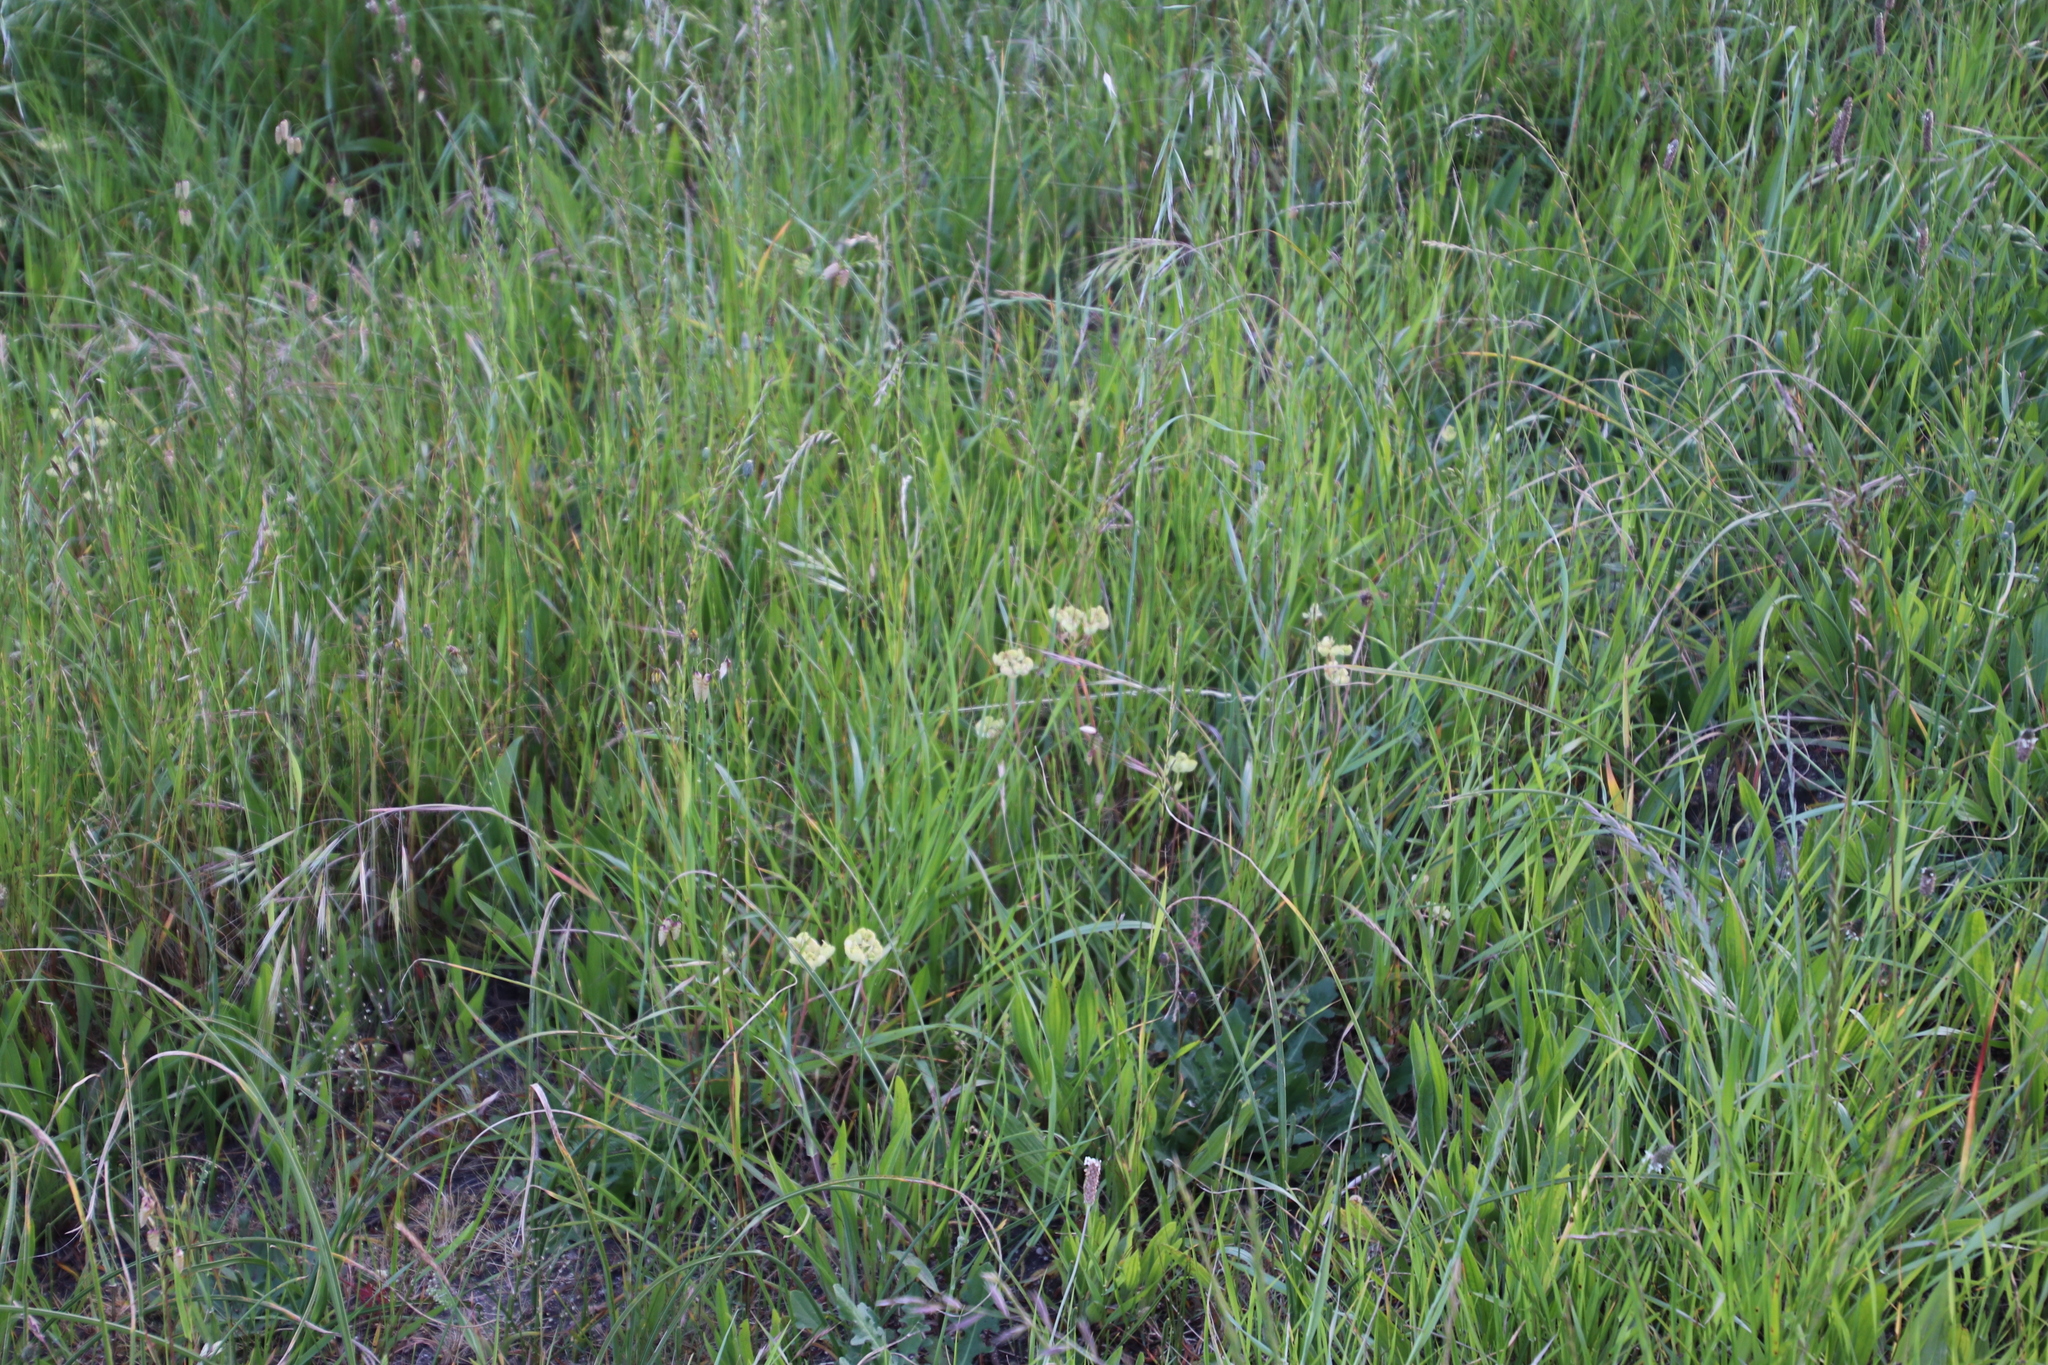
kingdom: Plantae
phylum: Tracheophyta
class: Magnoliopsida
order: Malpighiales
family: Euphorbiaceae
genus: Euphorbia
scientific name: Euphorbia helioscopia
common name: Sun spurge
